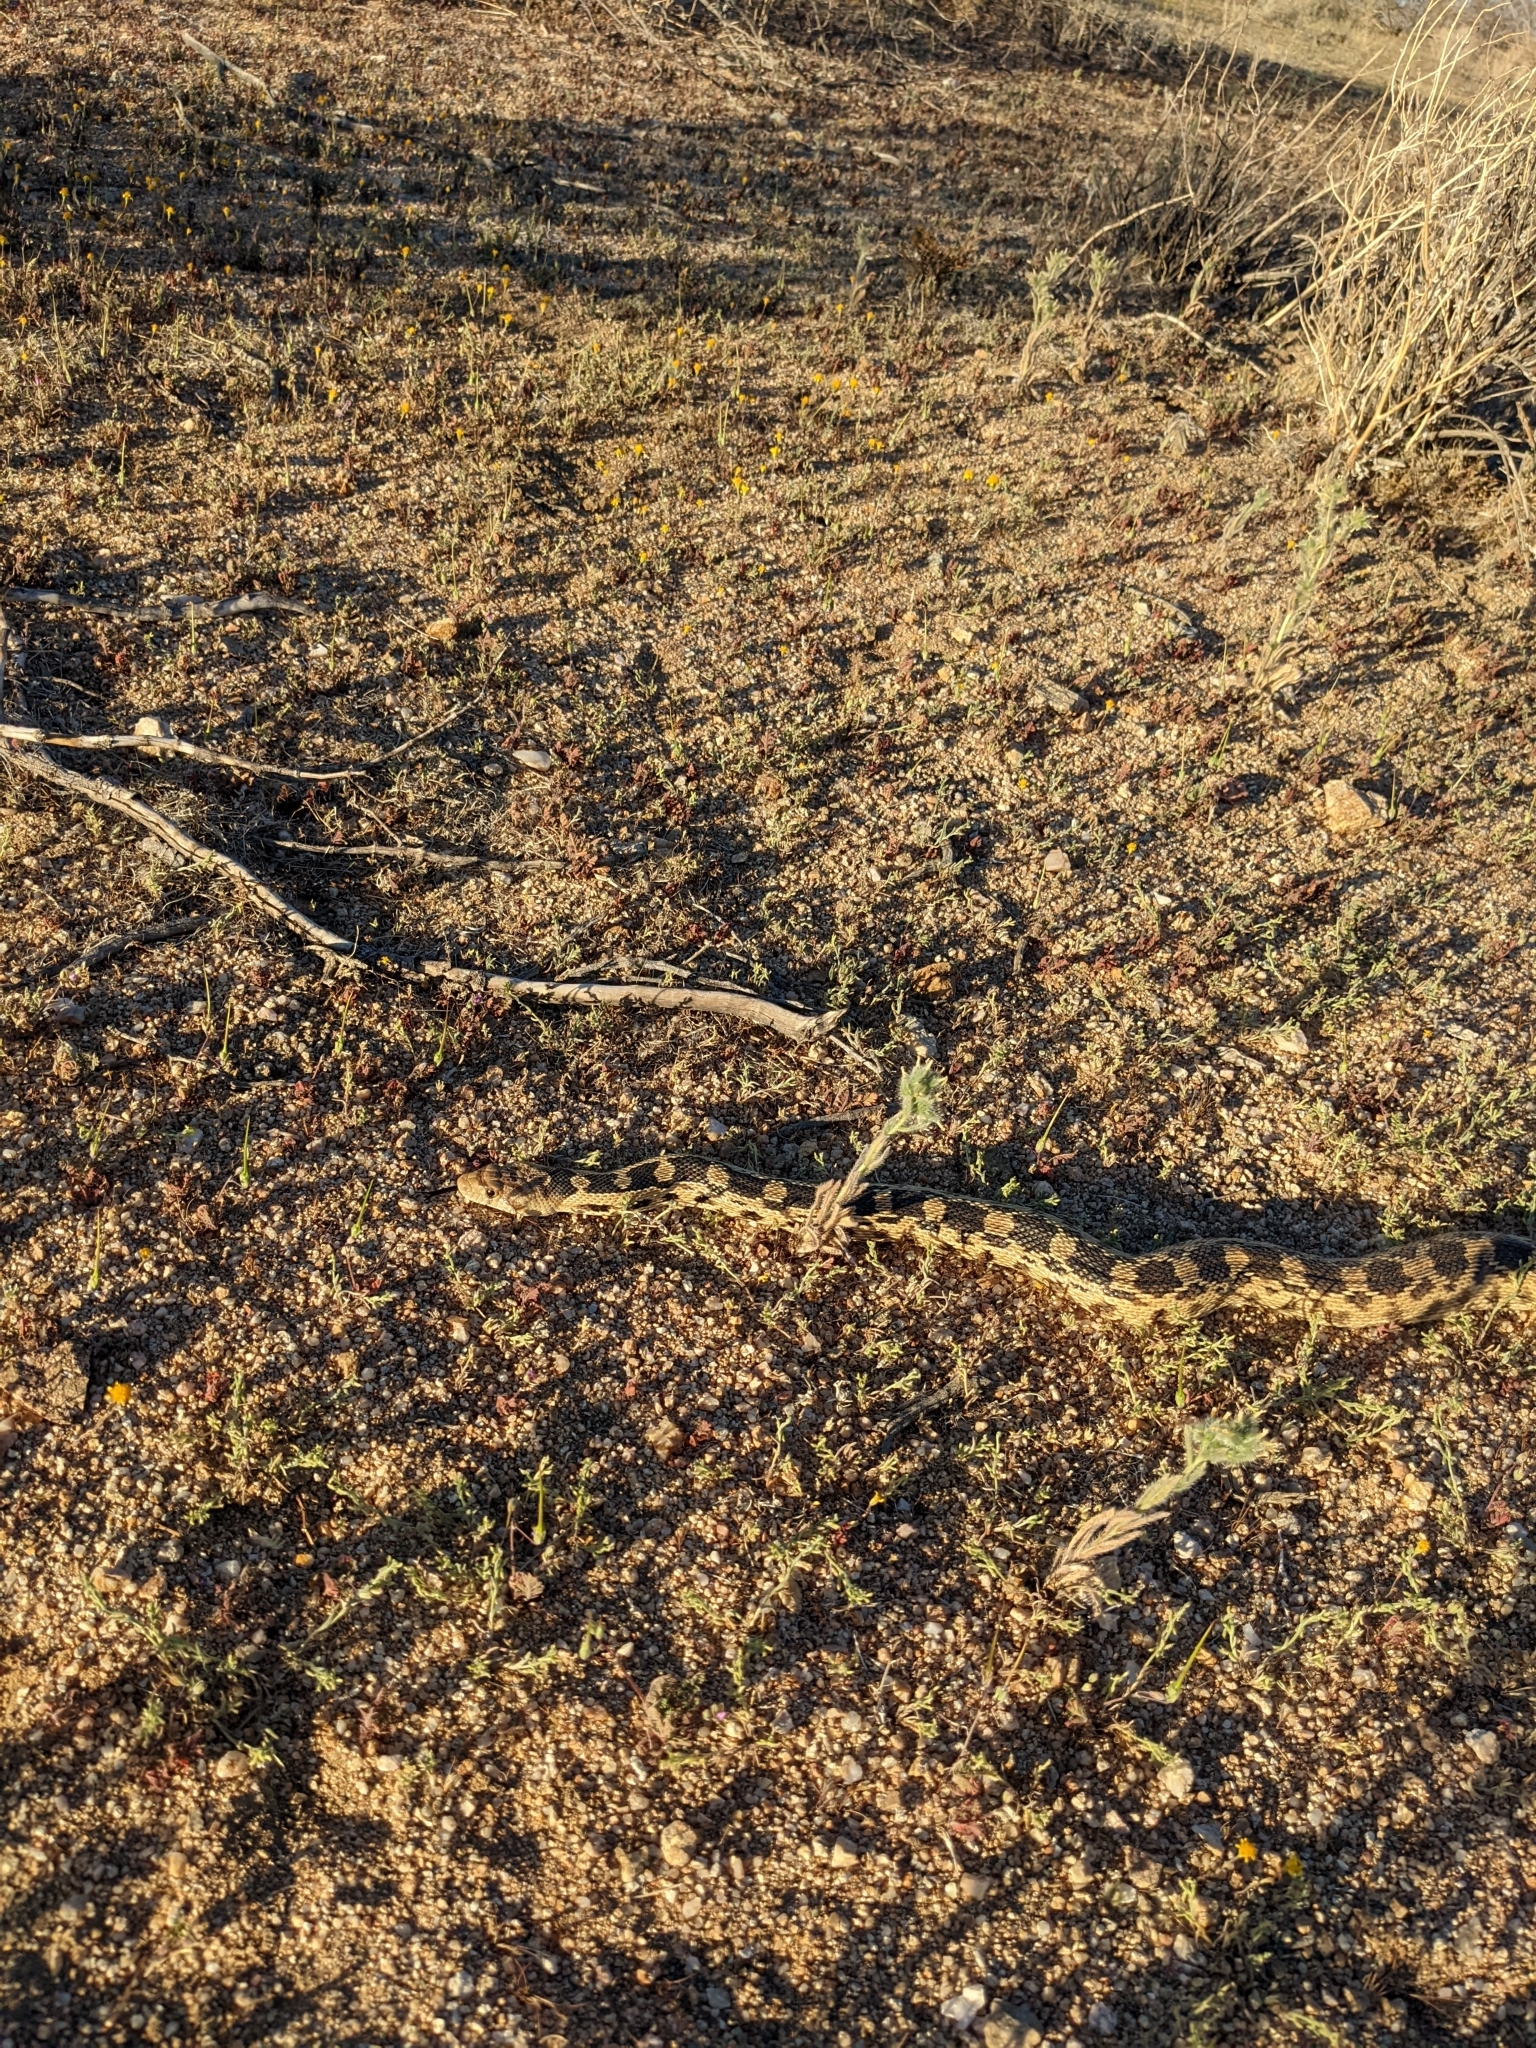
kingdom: Animalia
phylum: Chordata
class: Squamata
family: Colubridae
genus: Pituophis
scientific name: Pituophis catenifer
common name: Gopher snake
